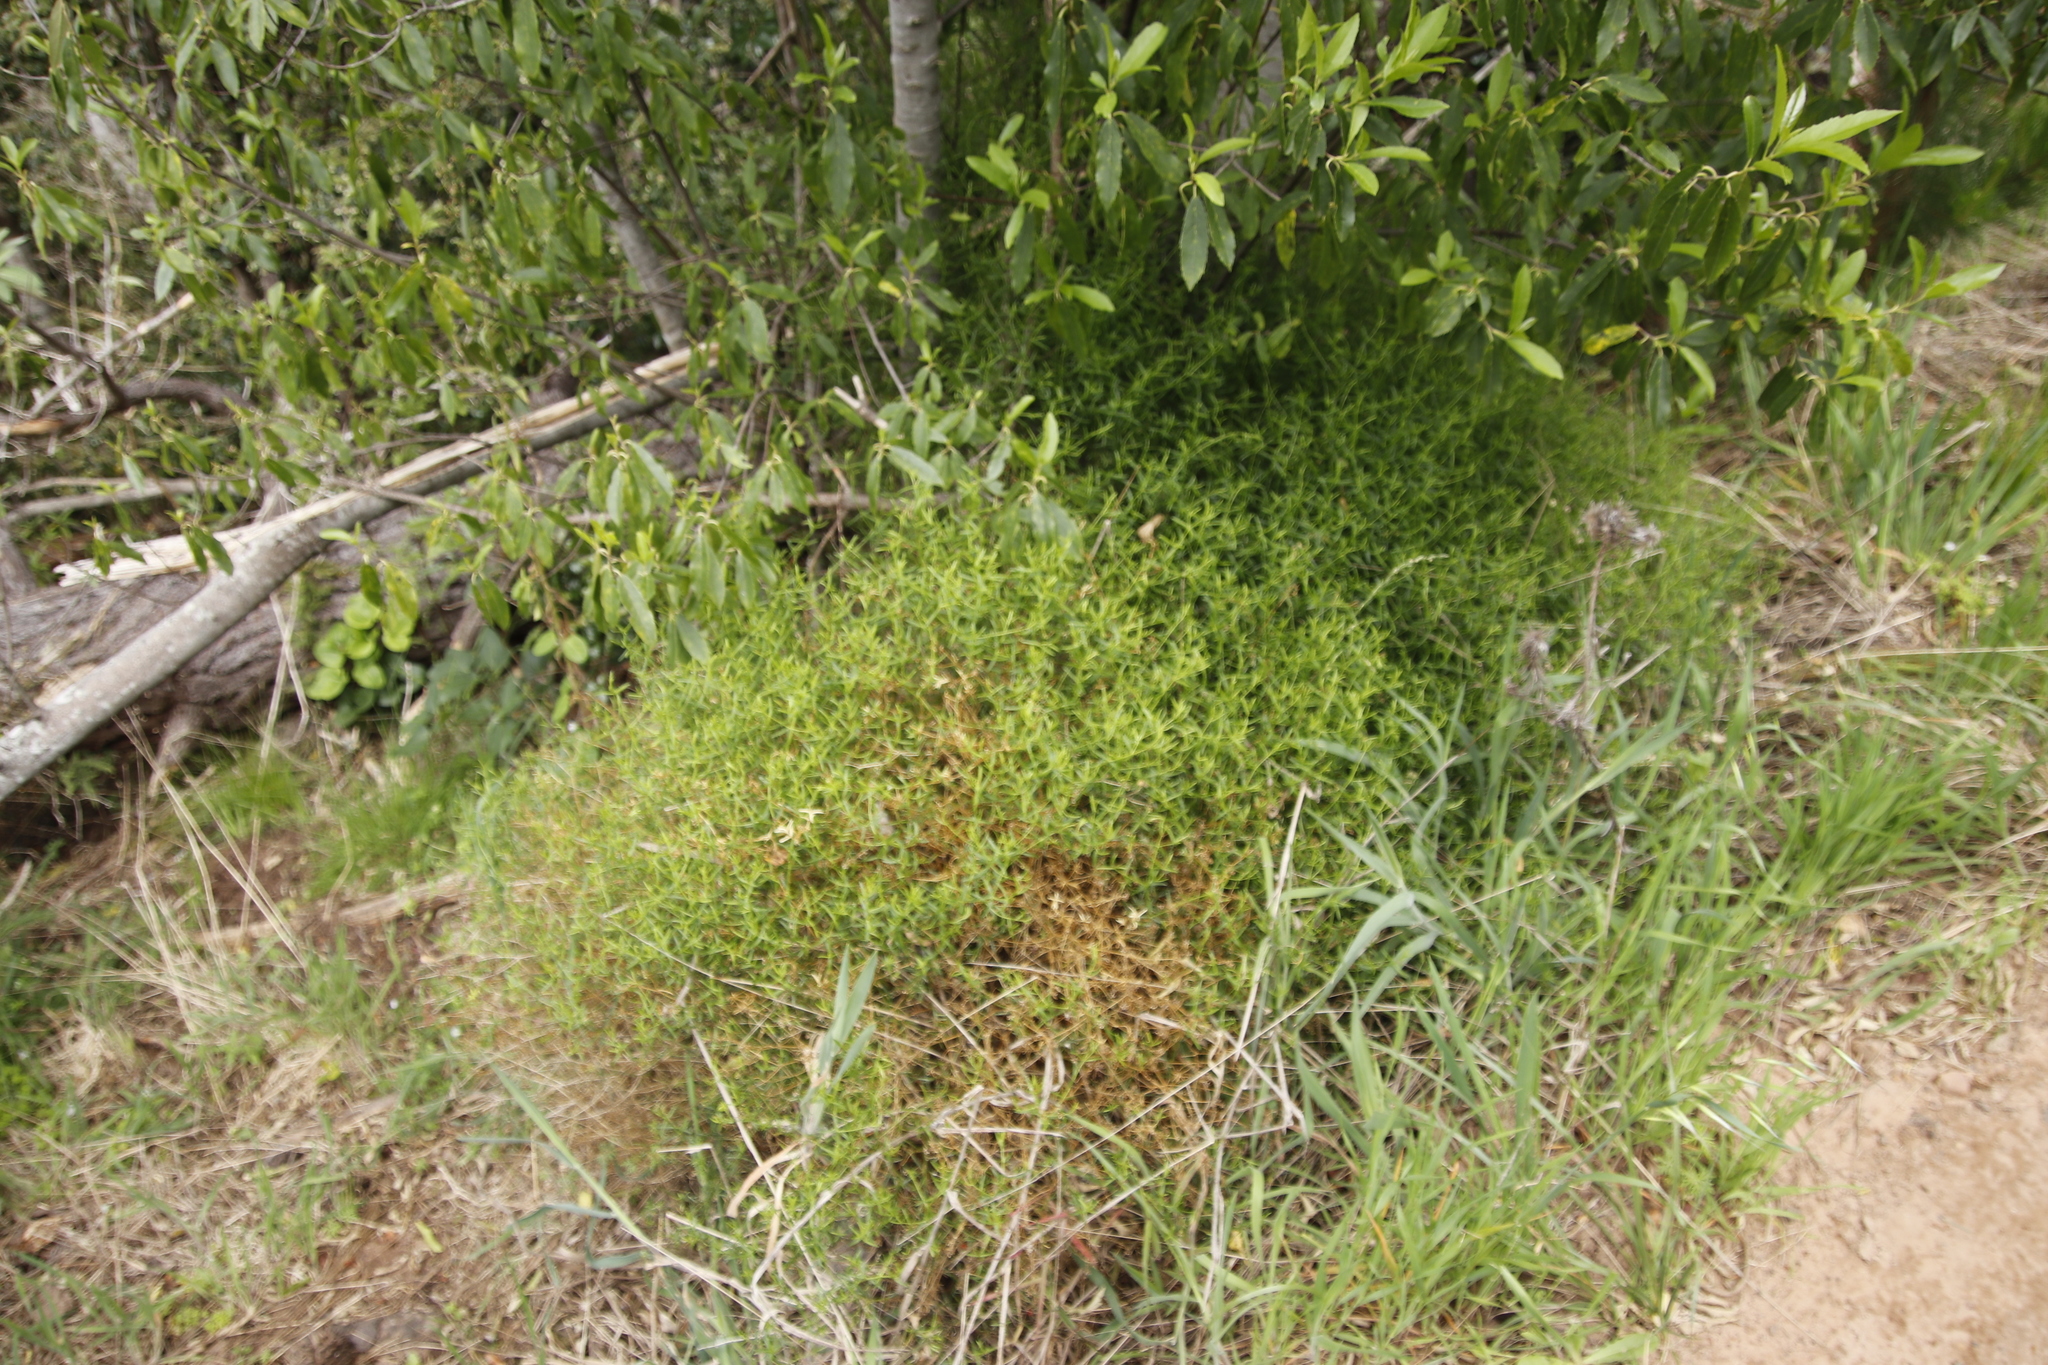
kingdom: Plantae
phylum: Tracheophyta
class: Magnoliopsida
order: Gentianales
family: Gentianaceae
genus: Chironia
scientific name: Chironia baccifera
